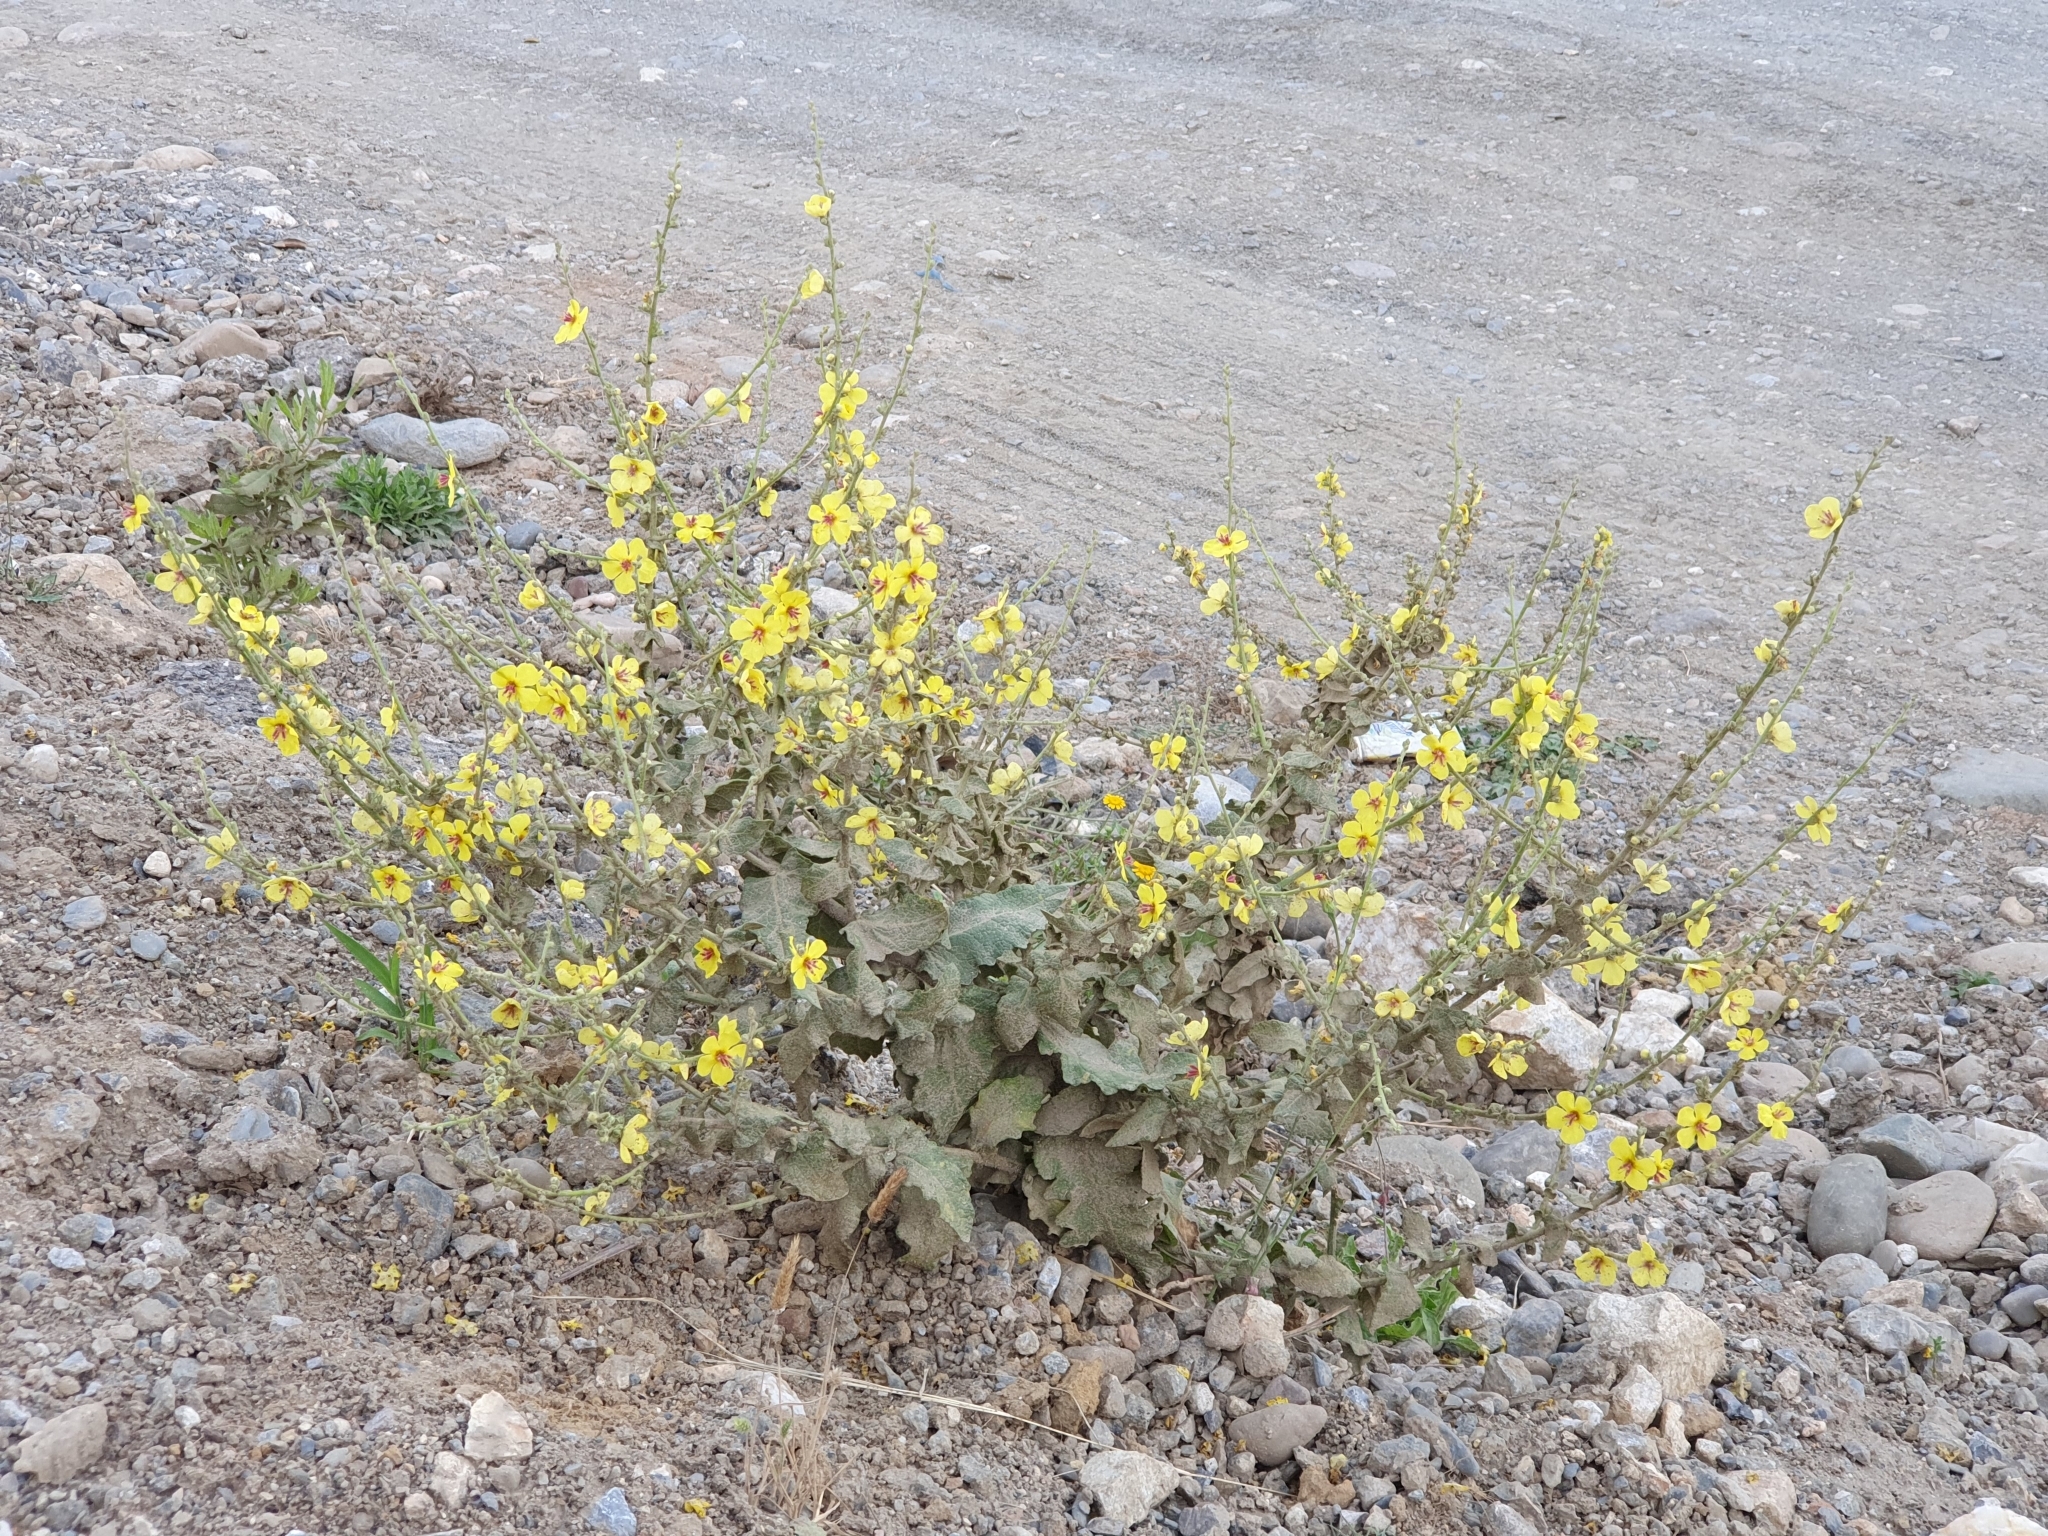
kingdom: Plantae
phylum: Tracheophyta
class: Magnoliopsida
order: Lamiales
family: Scrophulariaceae
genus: Verbascum
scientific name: Verbascum sinuatum
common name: Wavyleaf mullein
